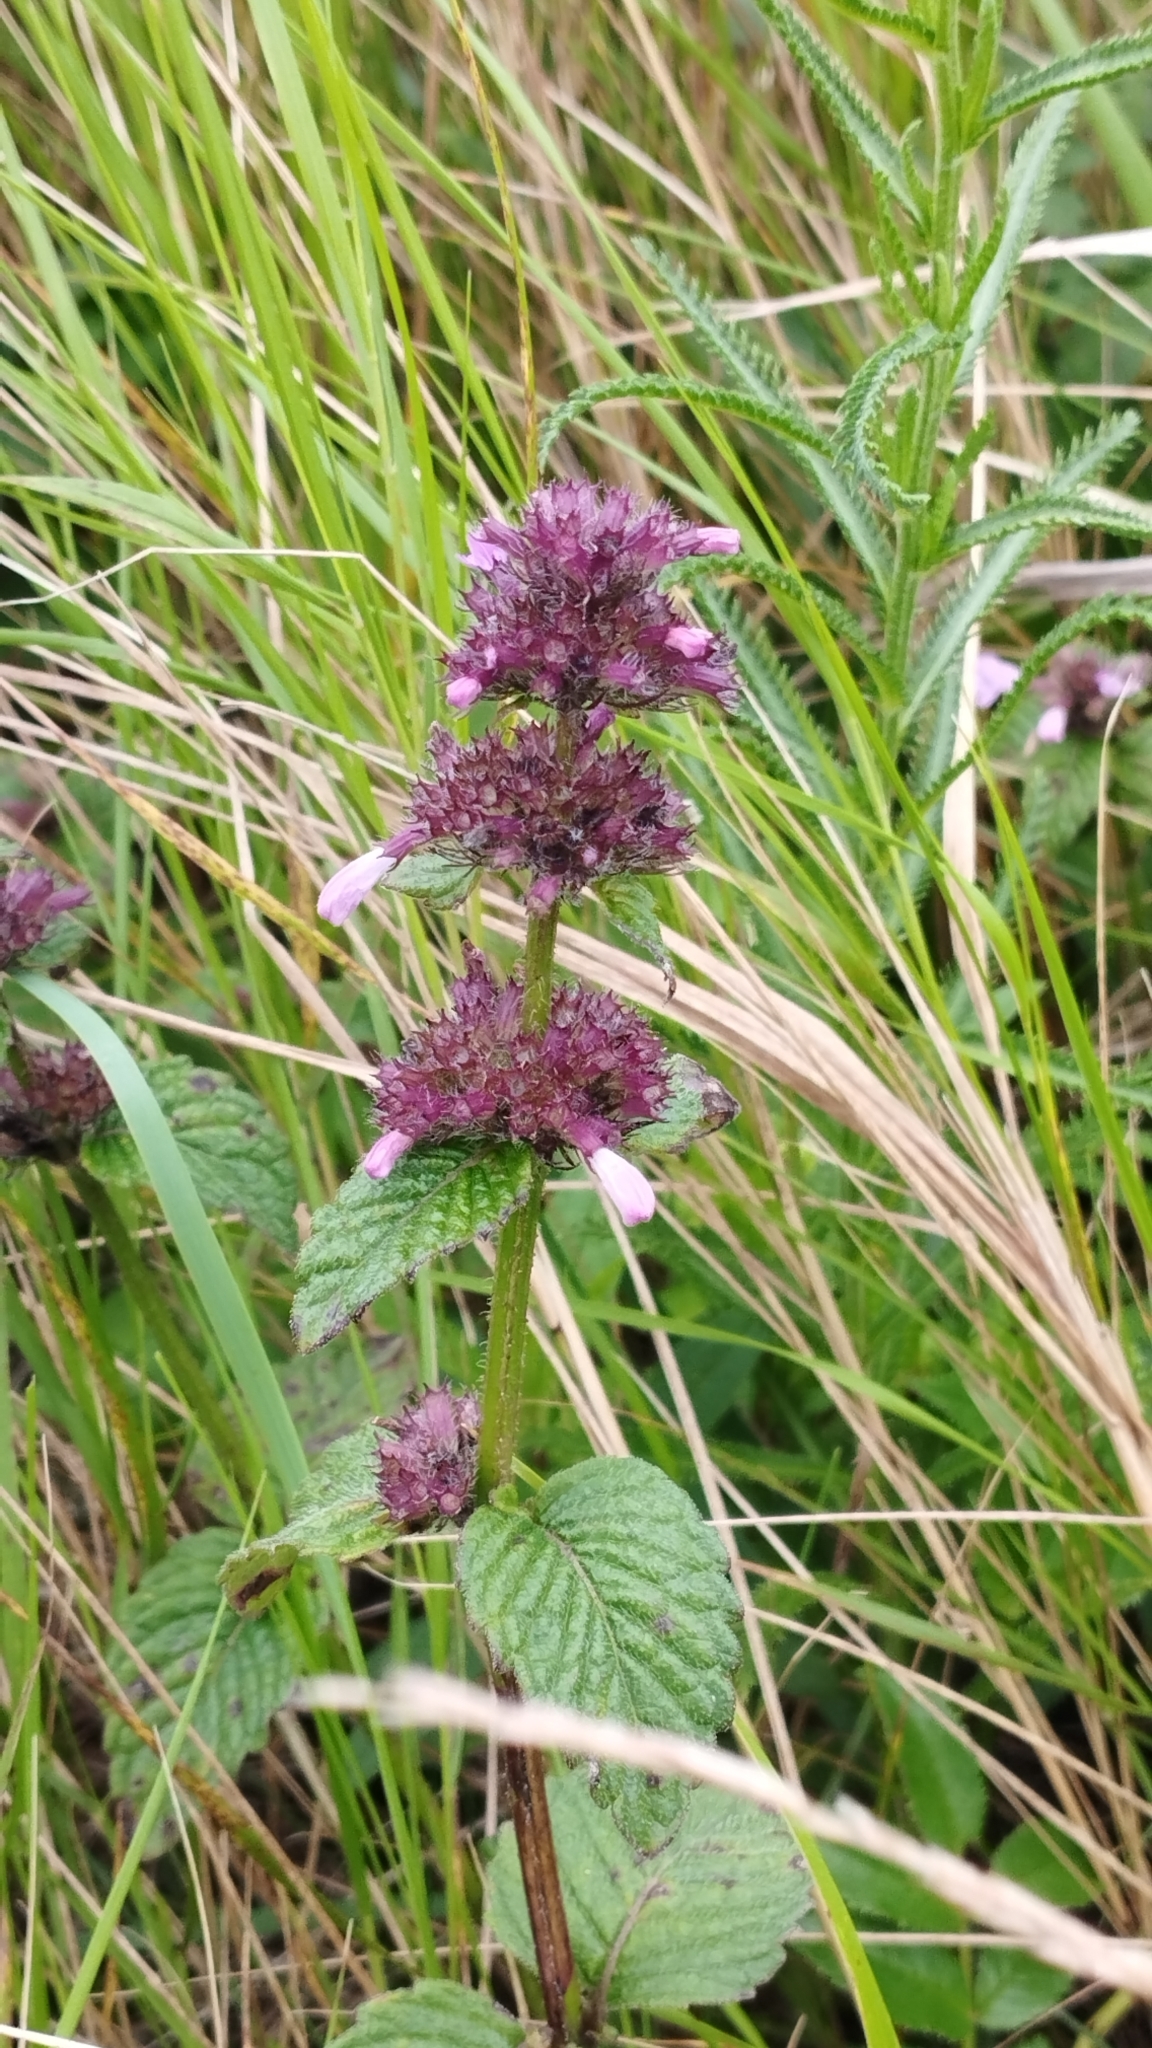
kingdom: Plantae
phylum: Tracheophyta
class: Magnoliopsida
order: Lamiales
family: Lamiaceae
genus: Clinopodium
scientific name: Clinopodium chinense
